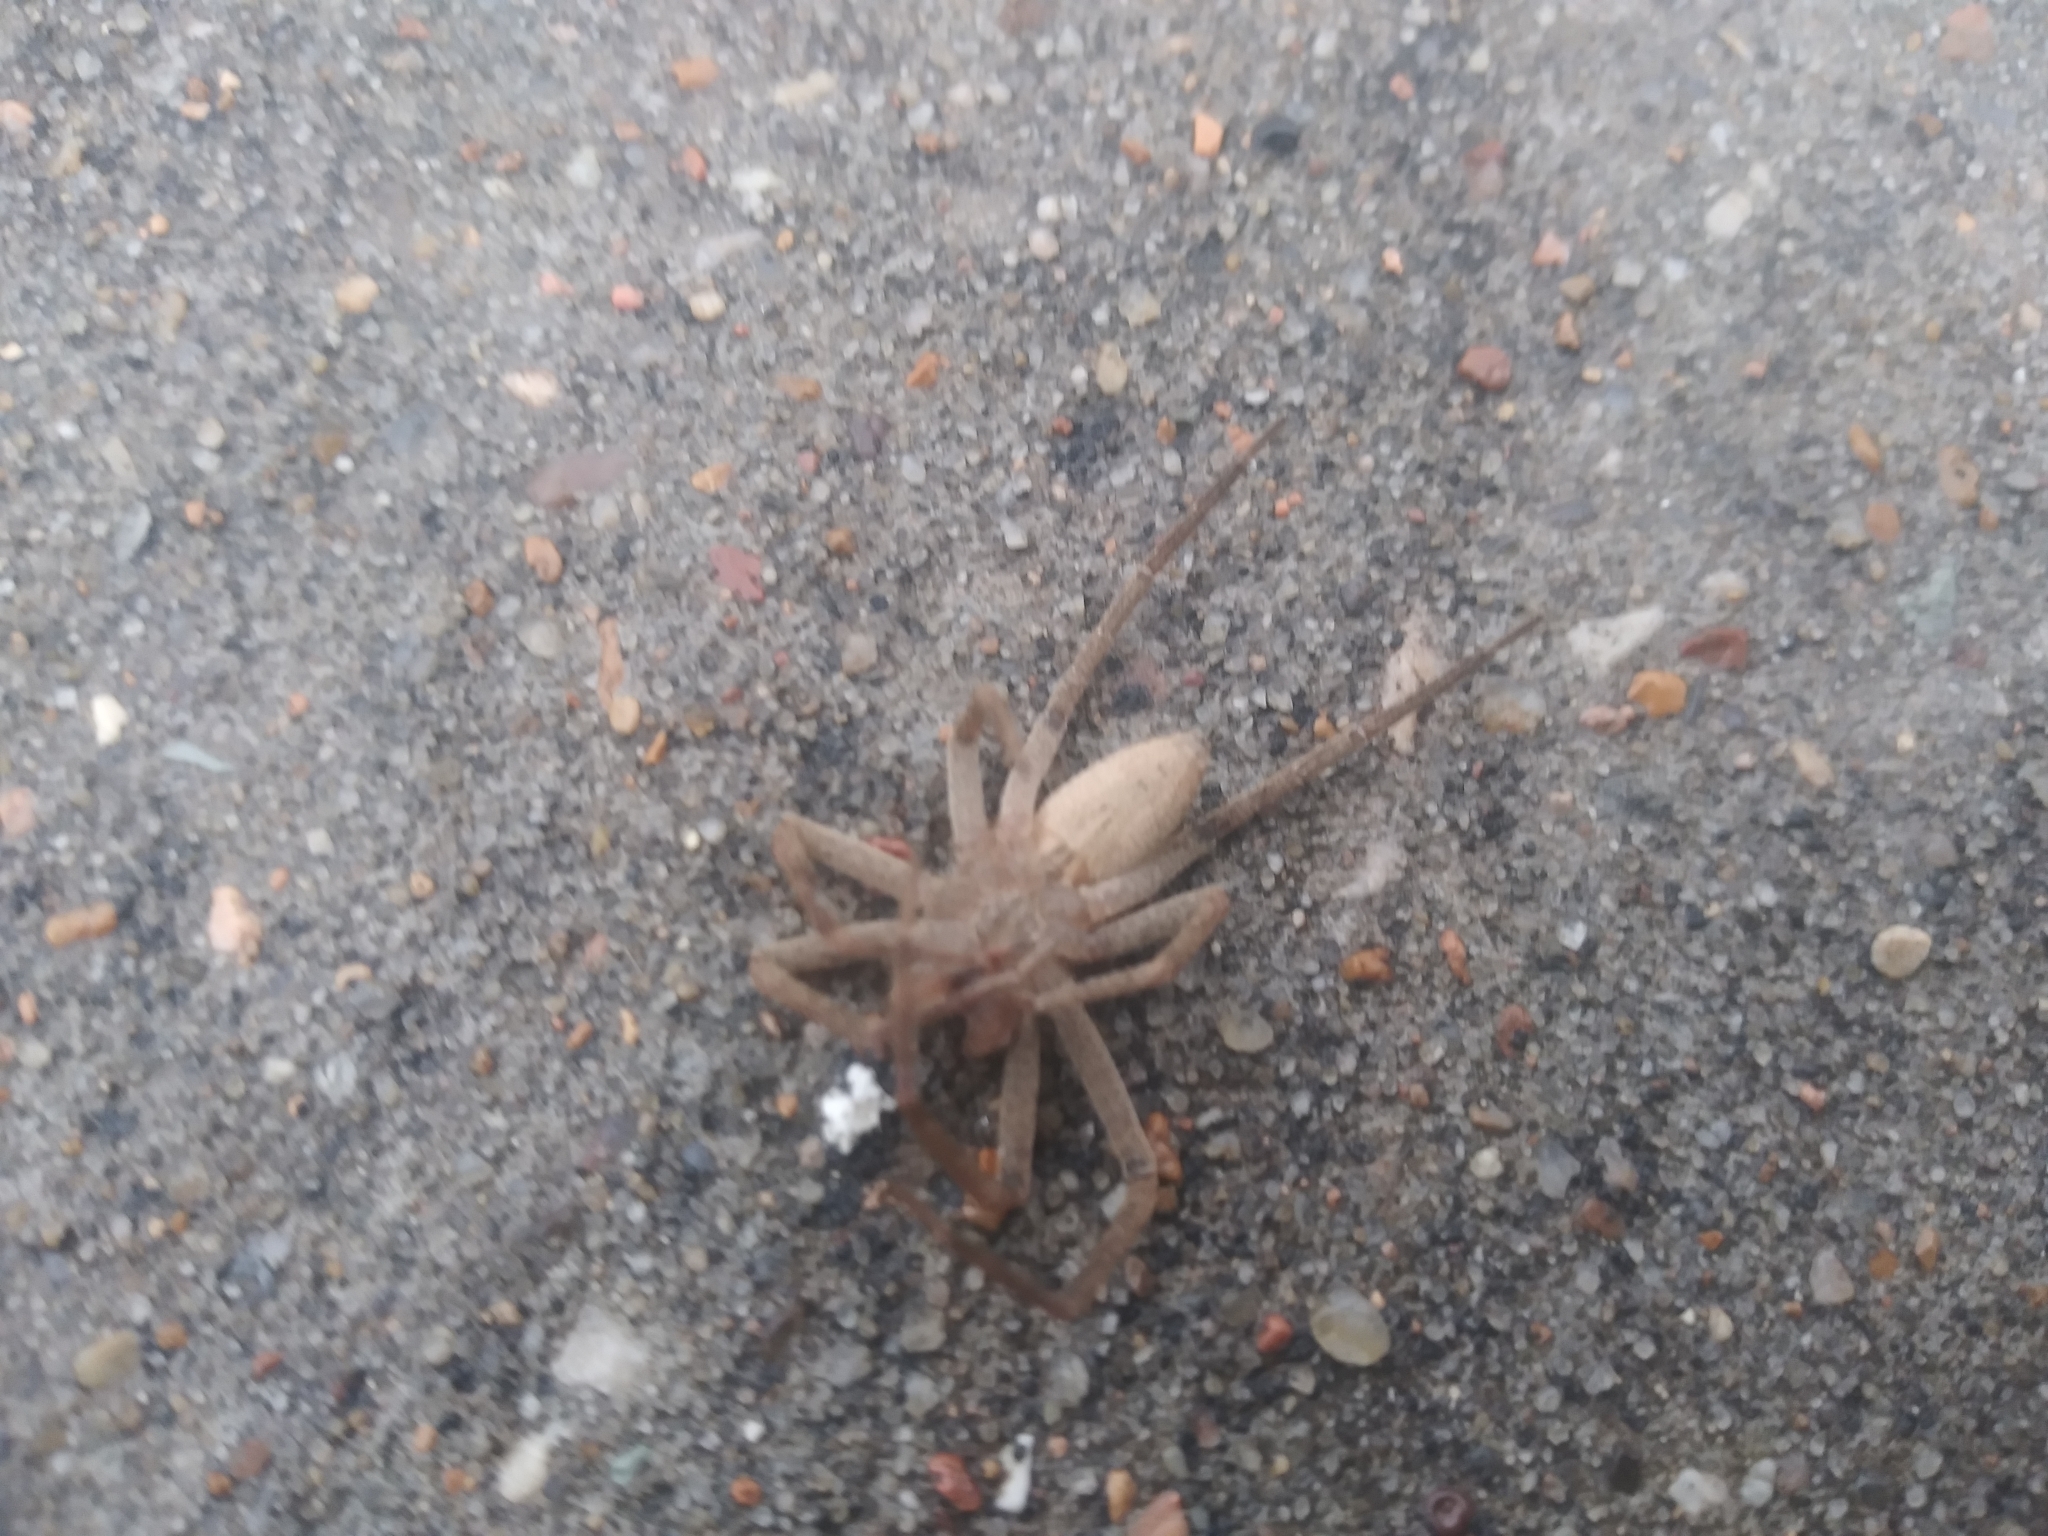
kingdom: Animalia
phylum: Arthropoda
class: Arachnida
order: Araneae
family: Pisauridae
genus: Pisaurina
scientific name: Pisaurina mira
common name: American nursery web spider
